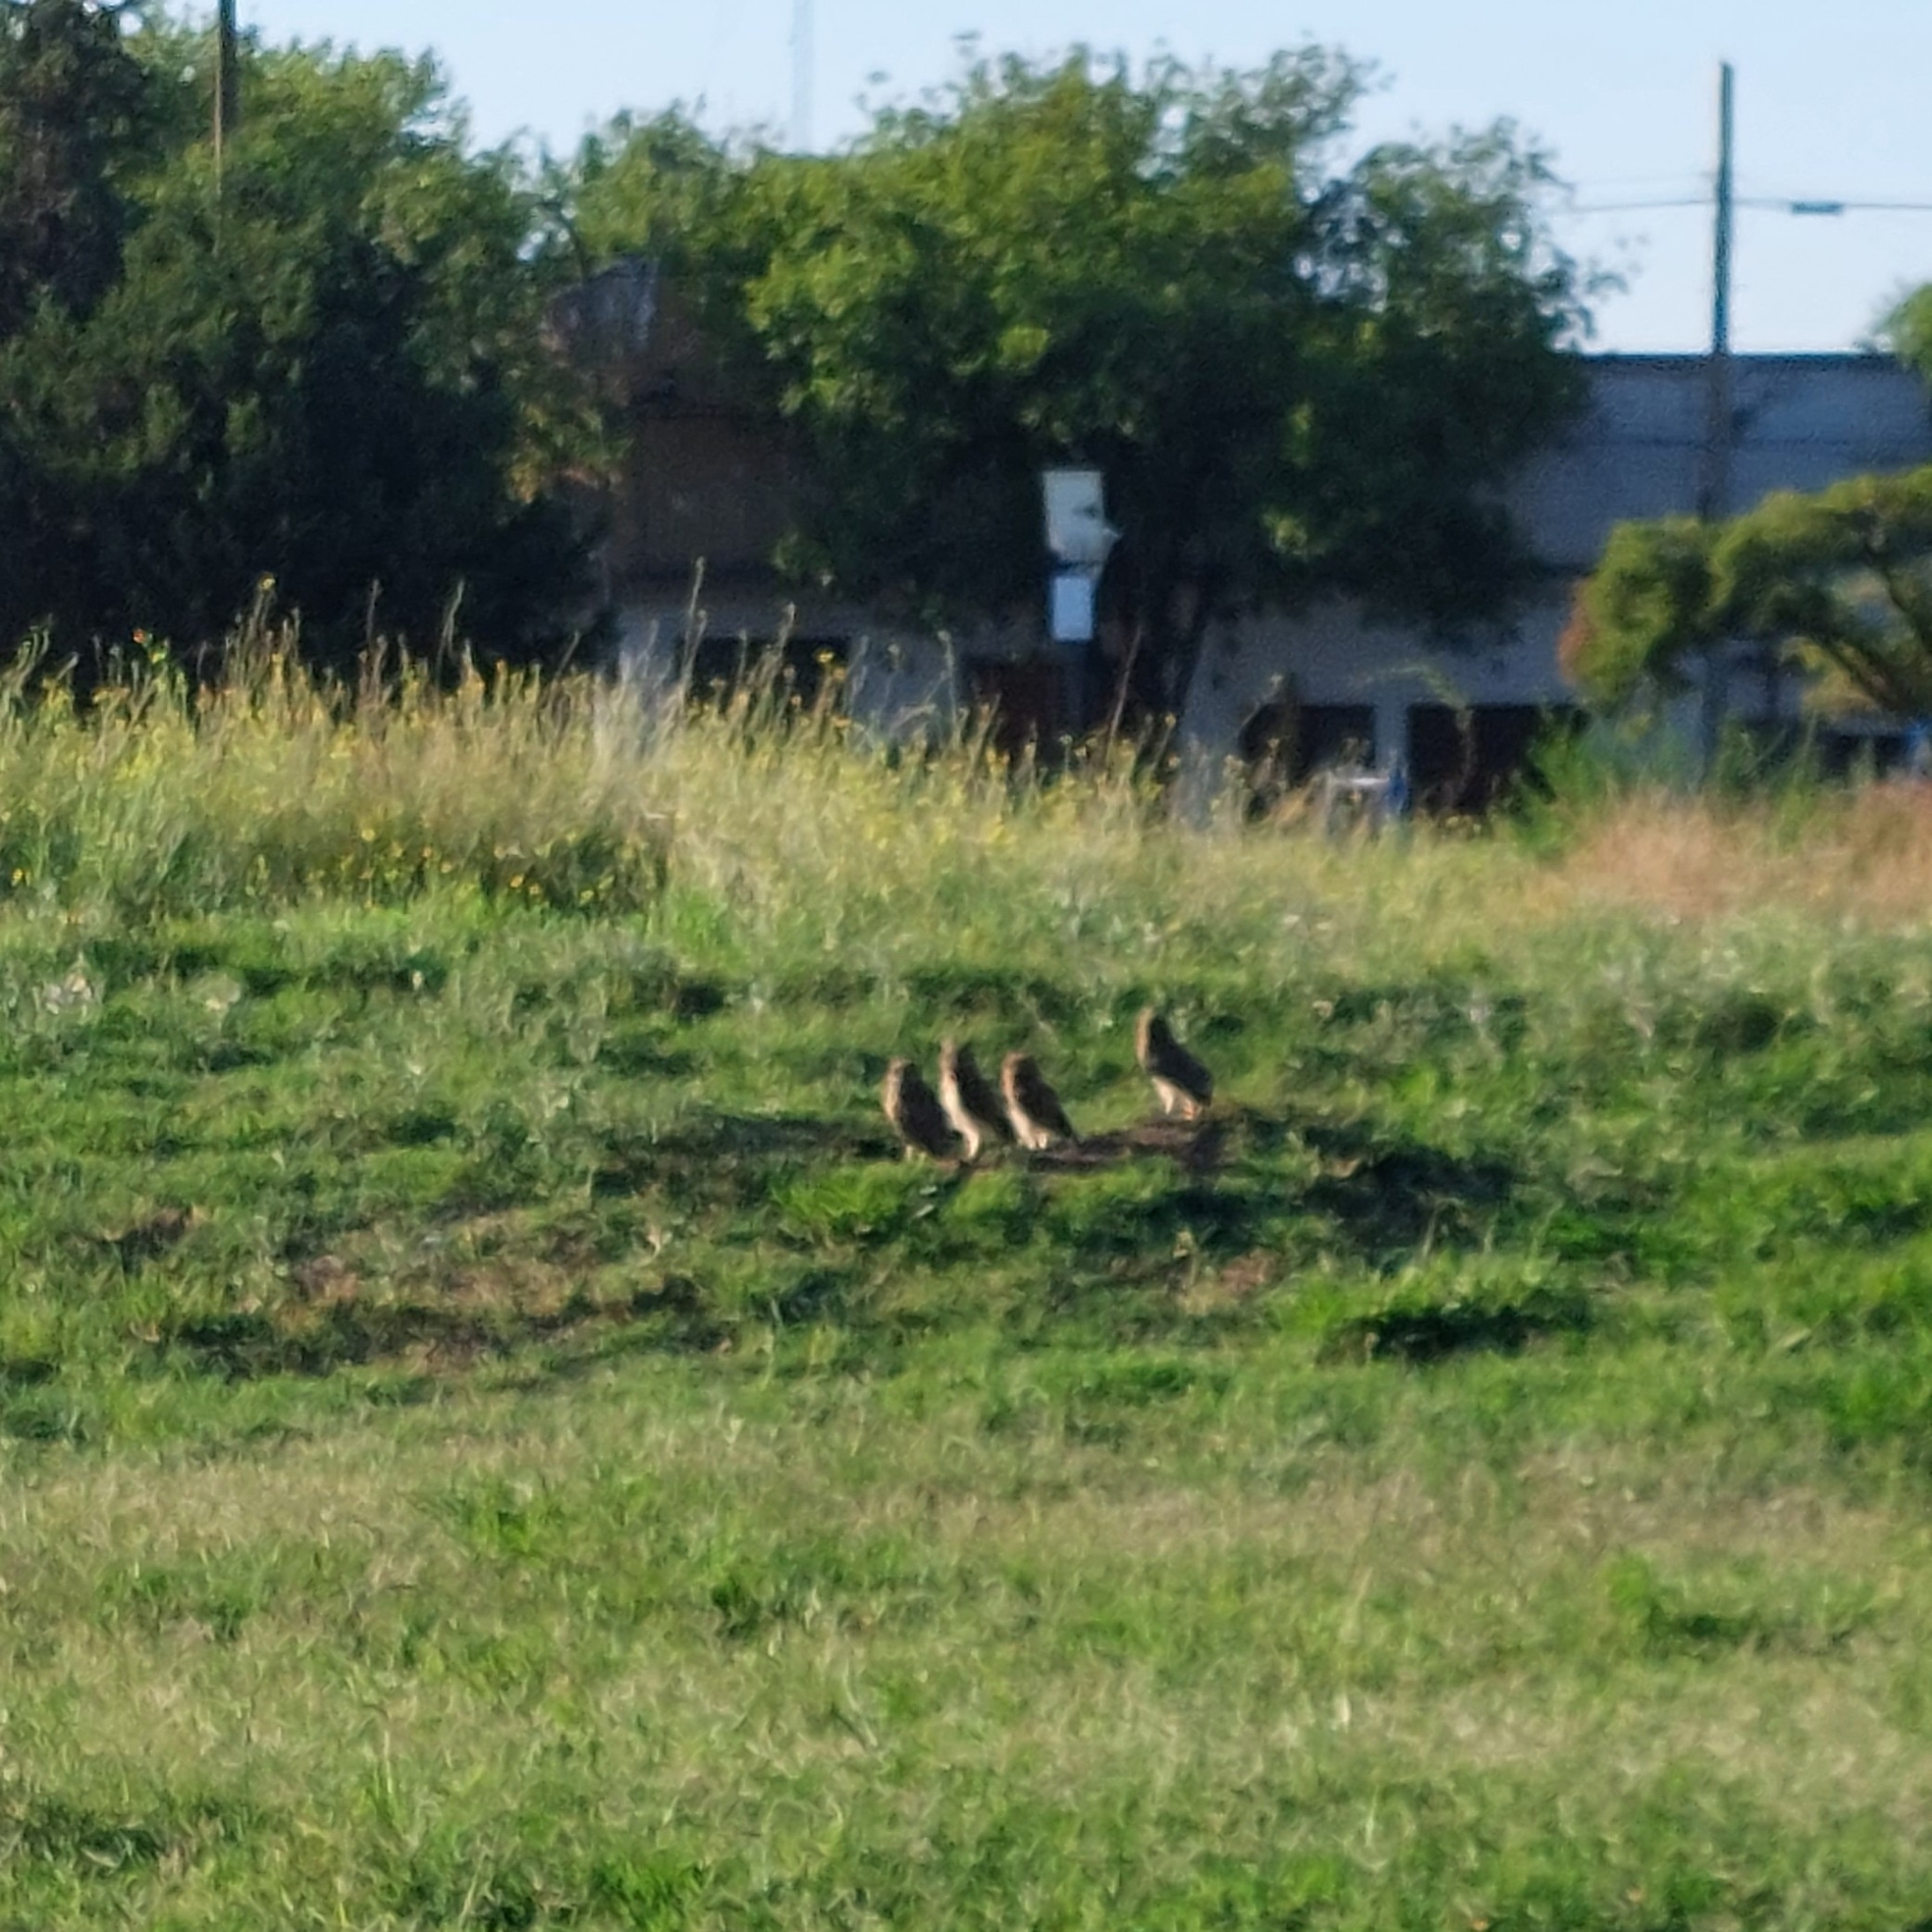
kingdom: Animalia
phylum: Chordata
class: Aves
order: Strigiformes
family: Strigidae
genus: Athene
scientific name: Athene cunicularia
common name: Burrowing owl
